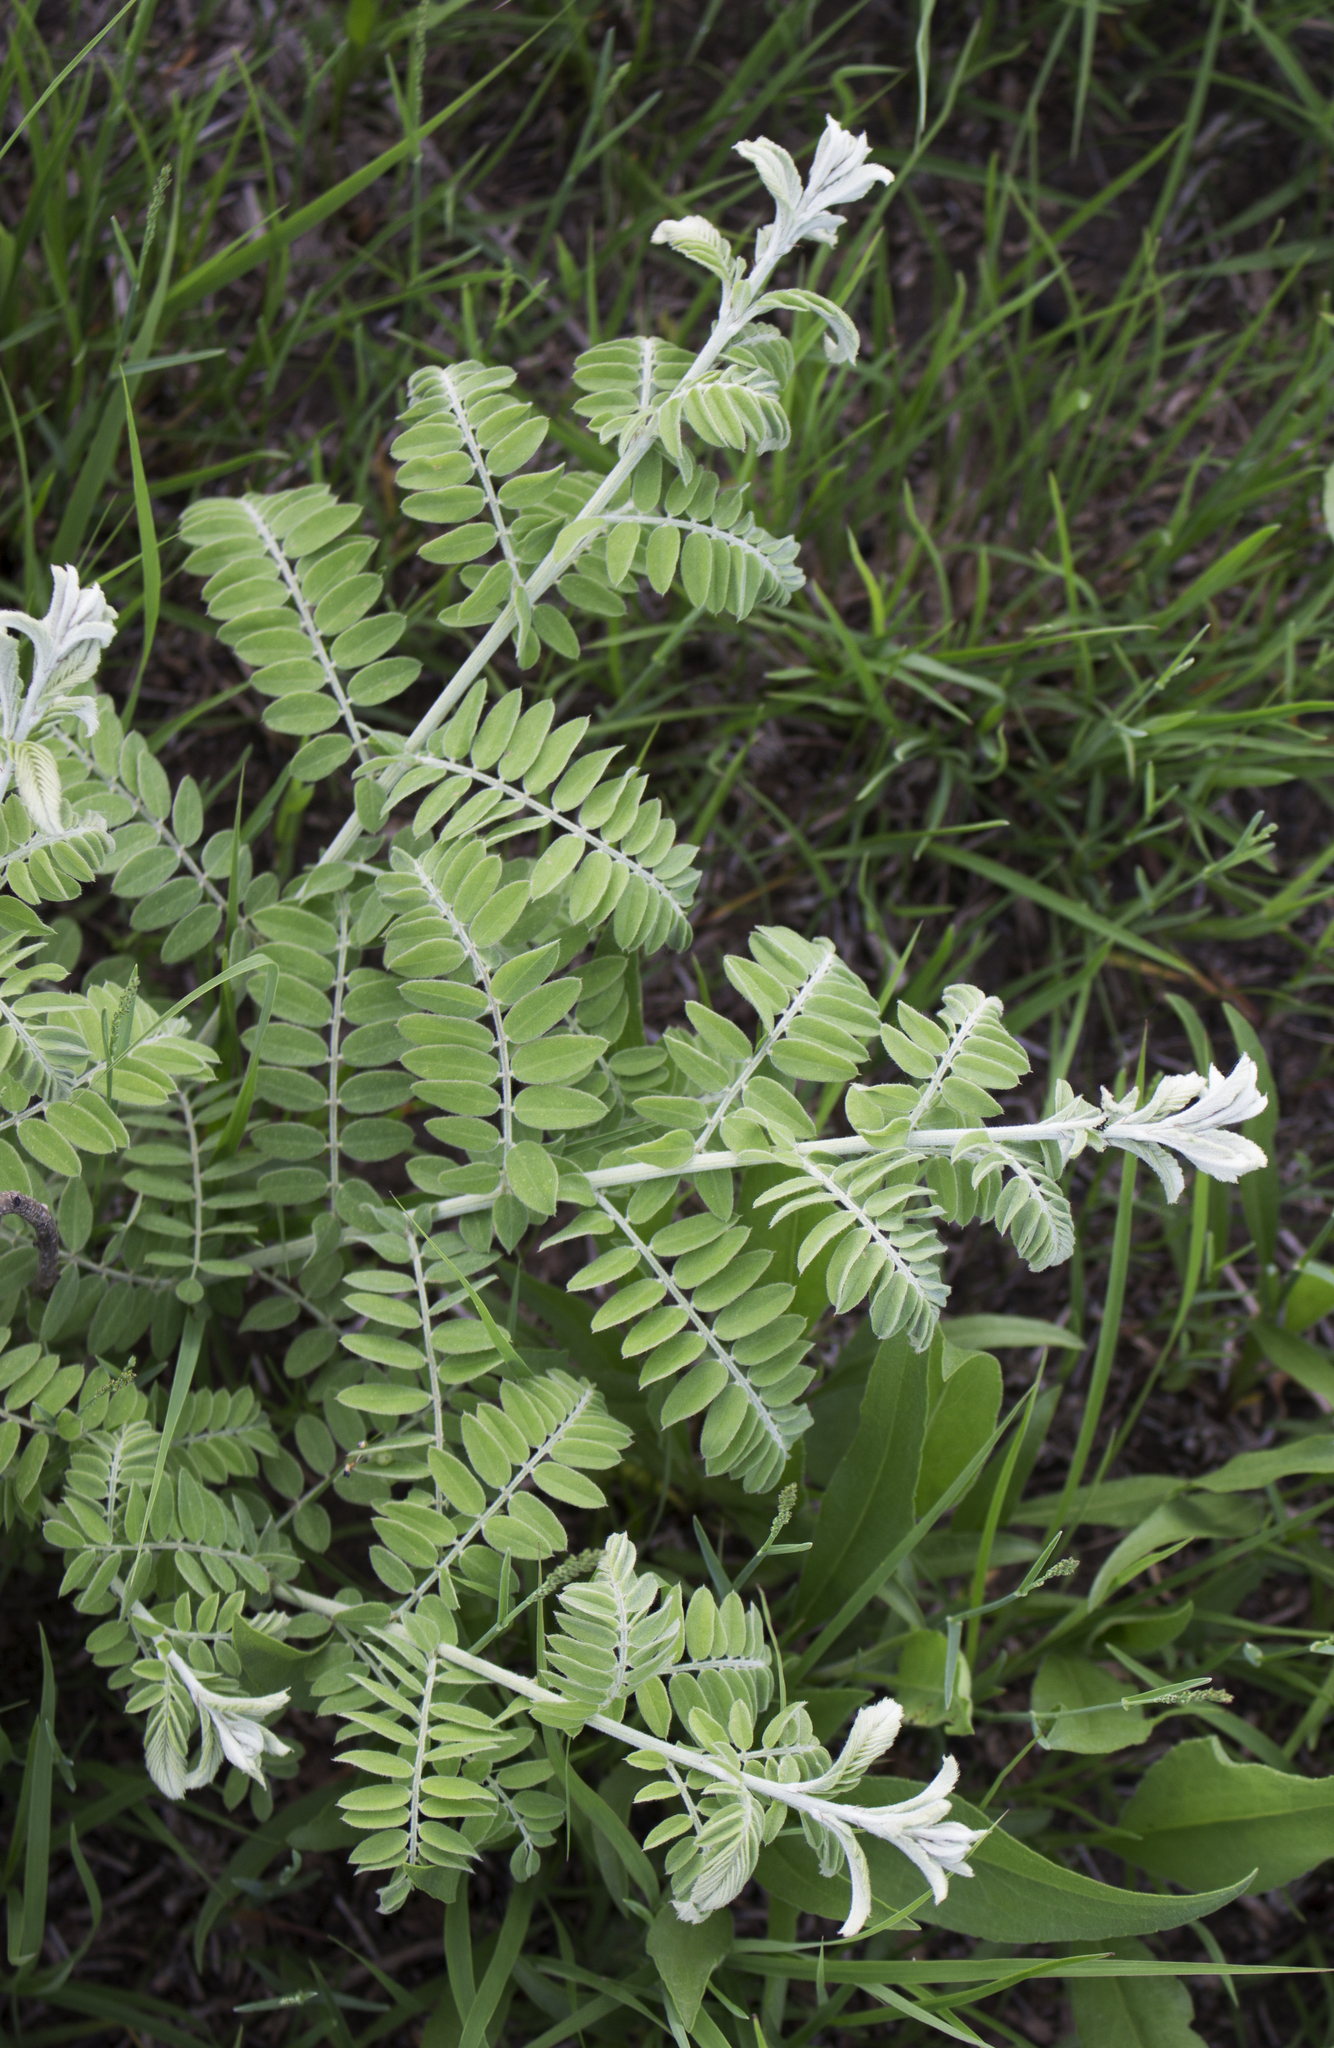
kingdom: Plantae
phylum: Tracheophyta
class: Magnoliopsida
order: Fabales
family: Fabaceae
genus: Amorpha
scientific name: Amorpha canescens
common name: Leadplant
